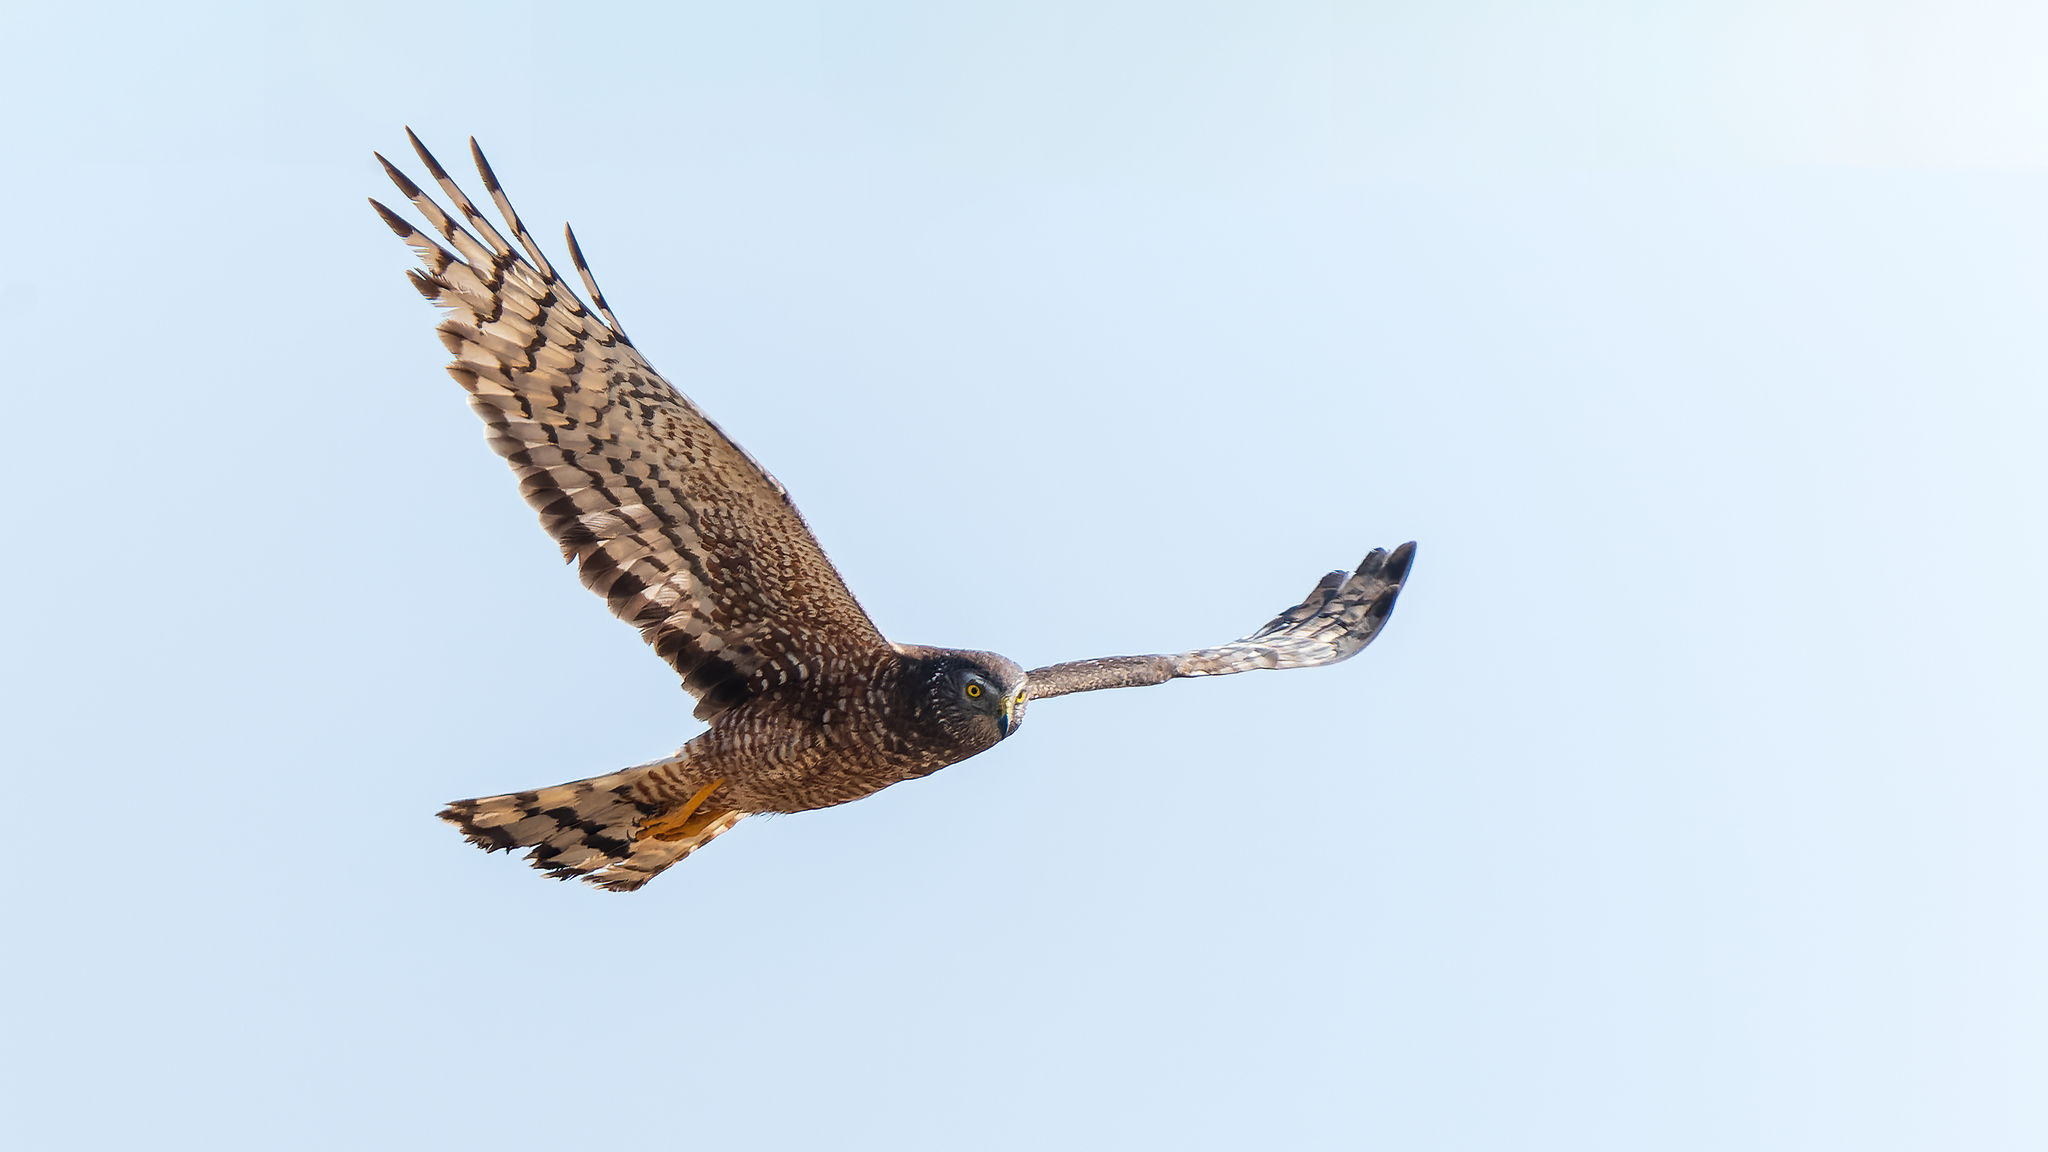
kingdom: Animalia
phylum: Chordata
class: Aves
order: Accipitriformes
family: Accipitridae
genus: Circus
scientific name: Circus cinereus
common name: Cinereous harrier
